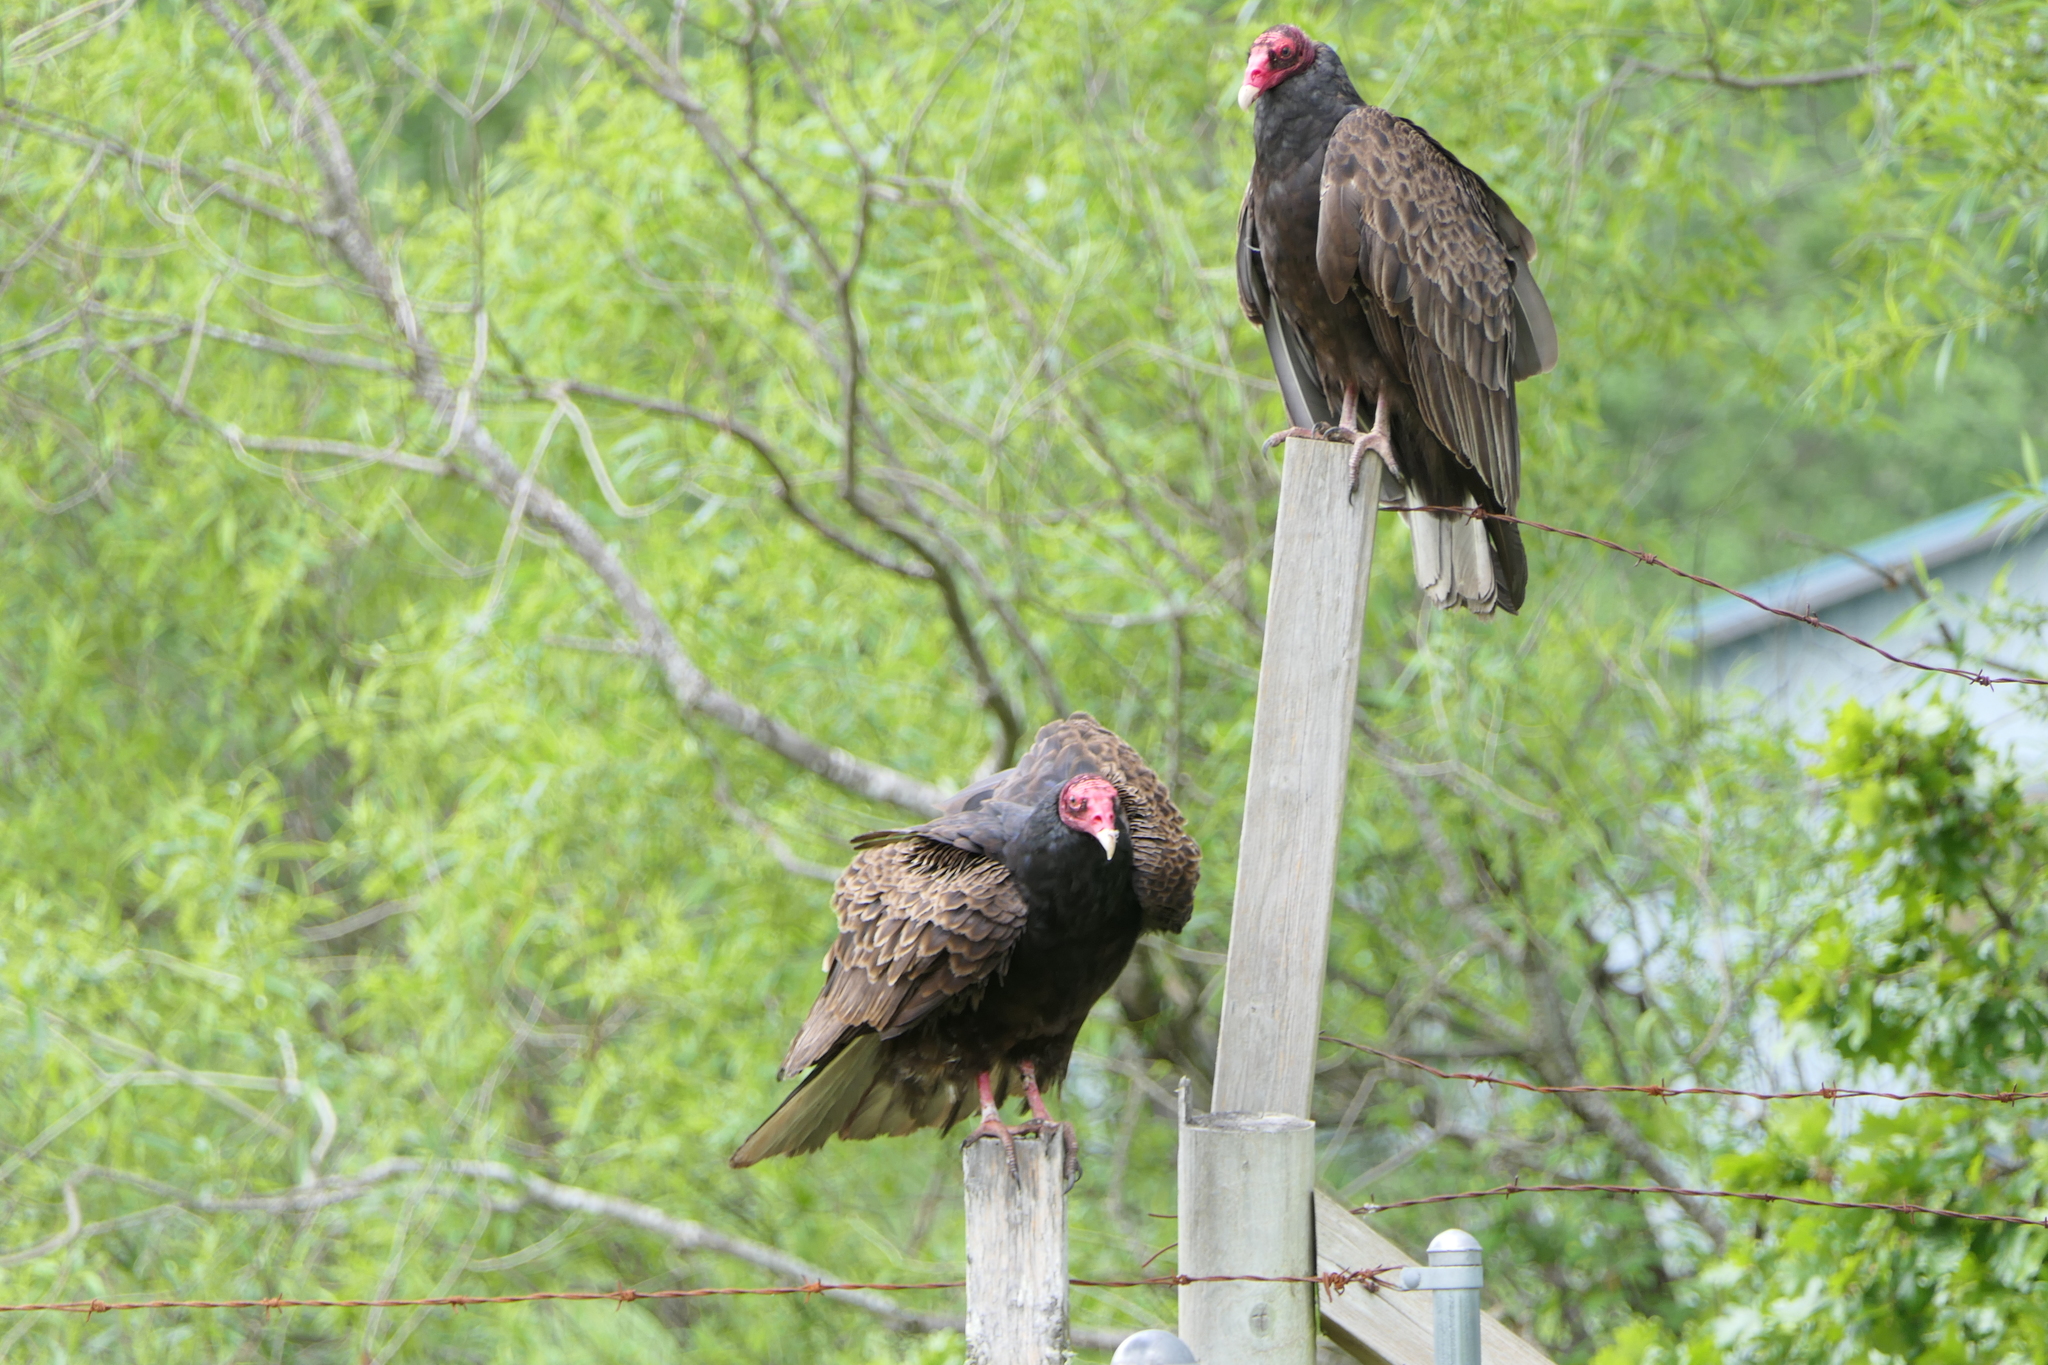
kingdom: Animalia
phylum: Chordata
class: Aves
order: Accipitriformes
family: Cathartidae
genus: Cathartes
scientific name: Cathartes aura
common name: Turkey vulture
